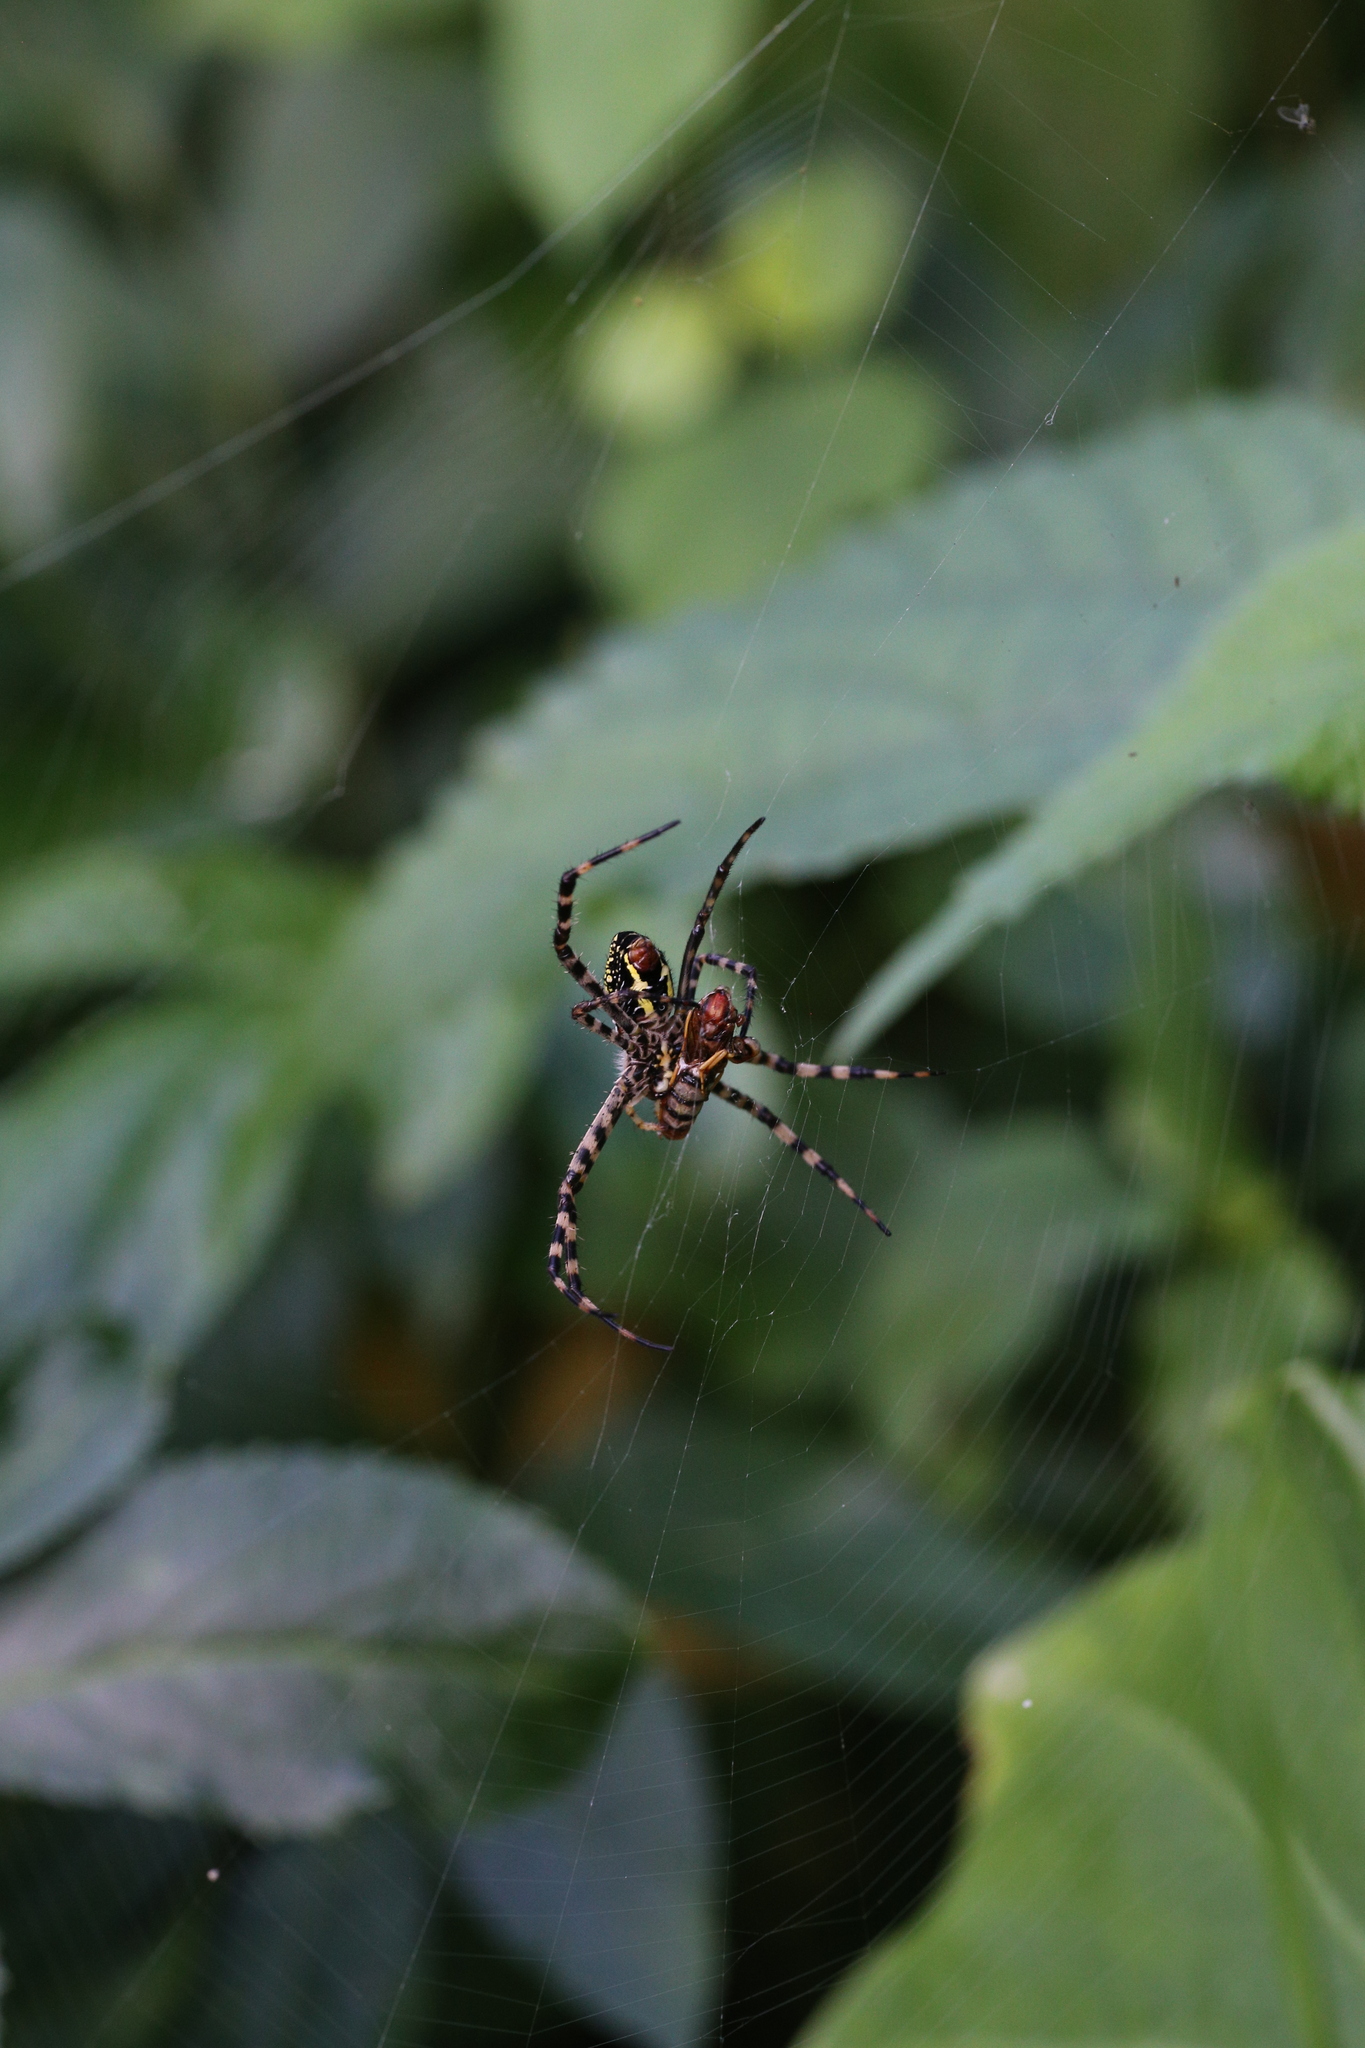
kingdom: Animalia
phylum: Arthropoda
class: Arachnida
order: Araneae
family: Araneidae
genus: Argiope
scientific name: Argiope aemula
